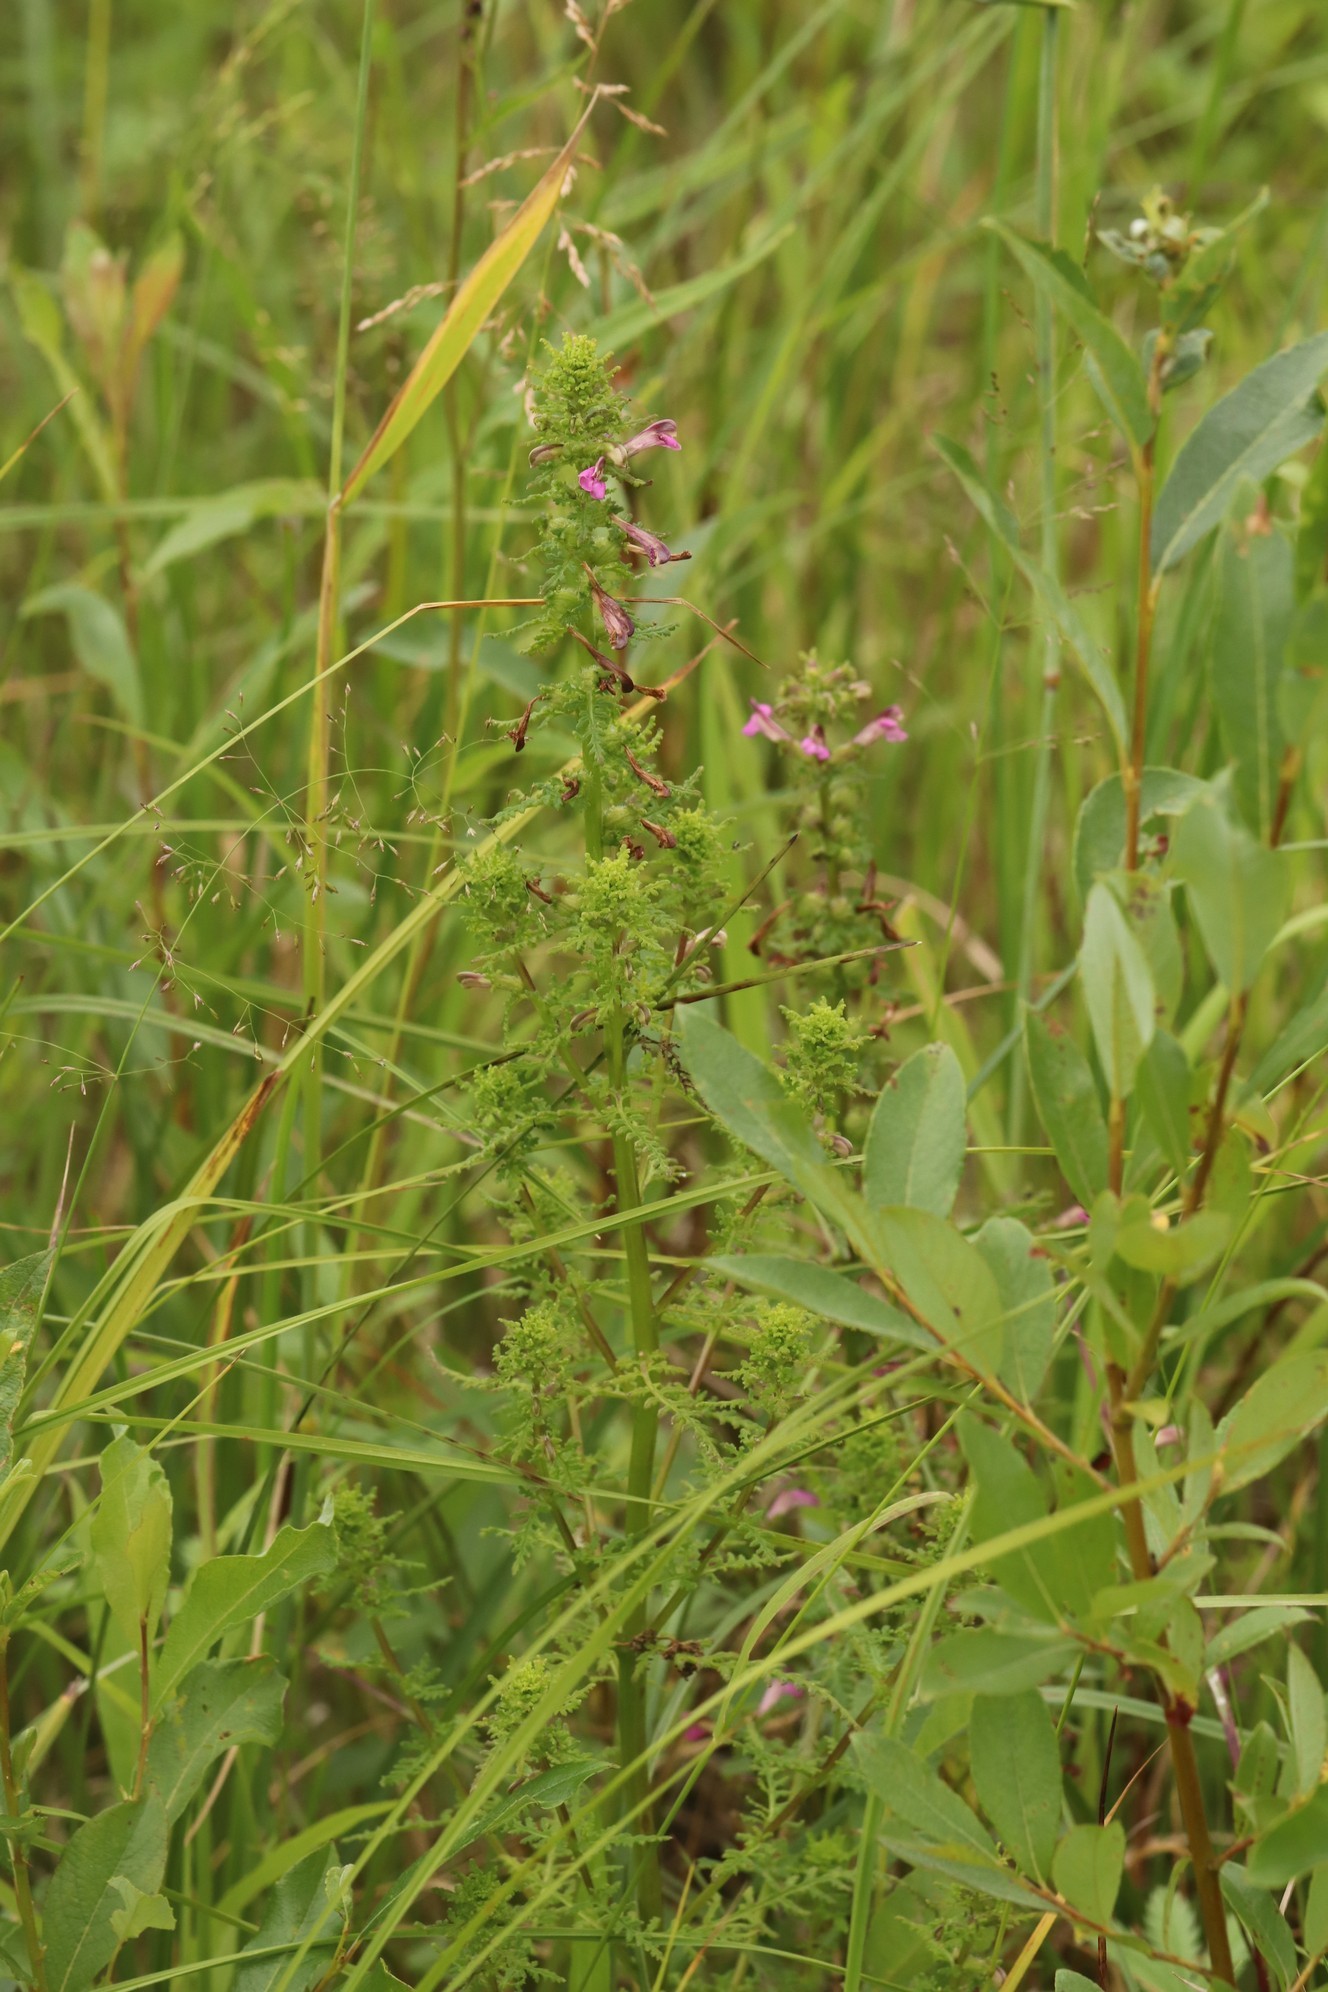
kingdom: Plantae
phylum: Tracheophyta
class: Magnoliopsida
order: Lamiales
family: Orobanchaceae
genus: Pedicularis
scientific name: Pedicularis palustris
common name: Marsh lousewort
